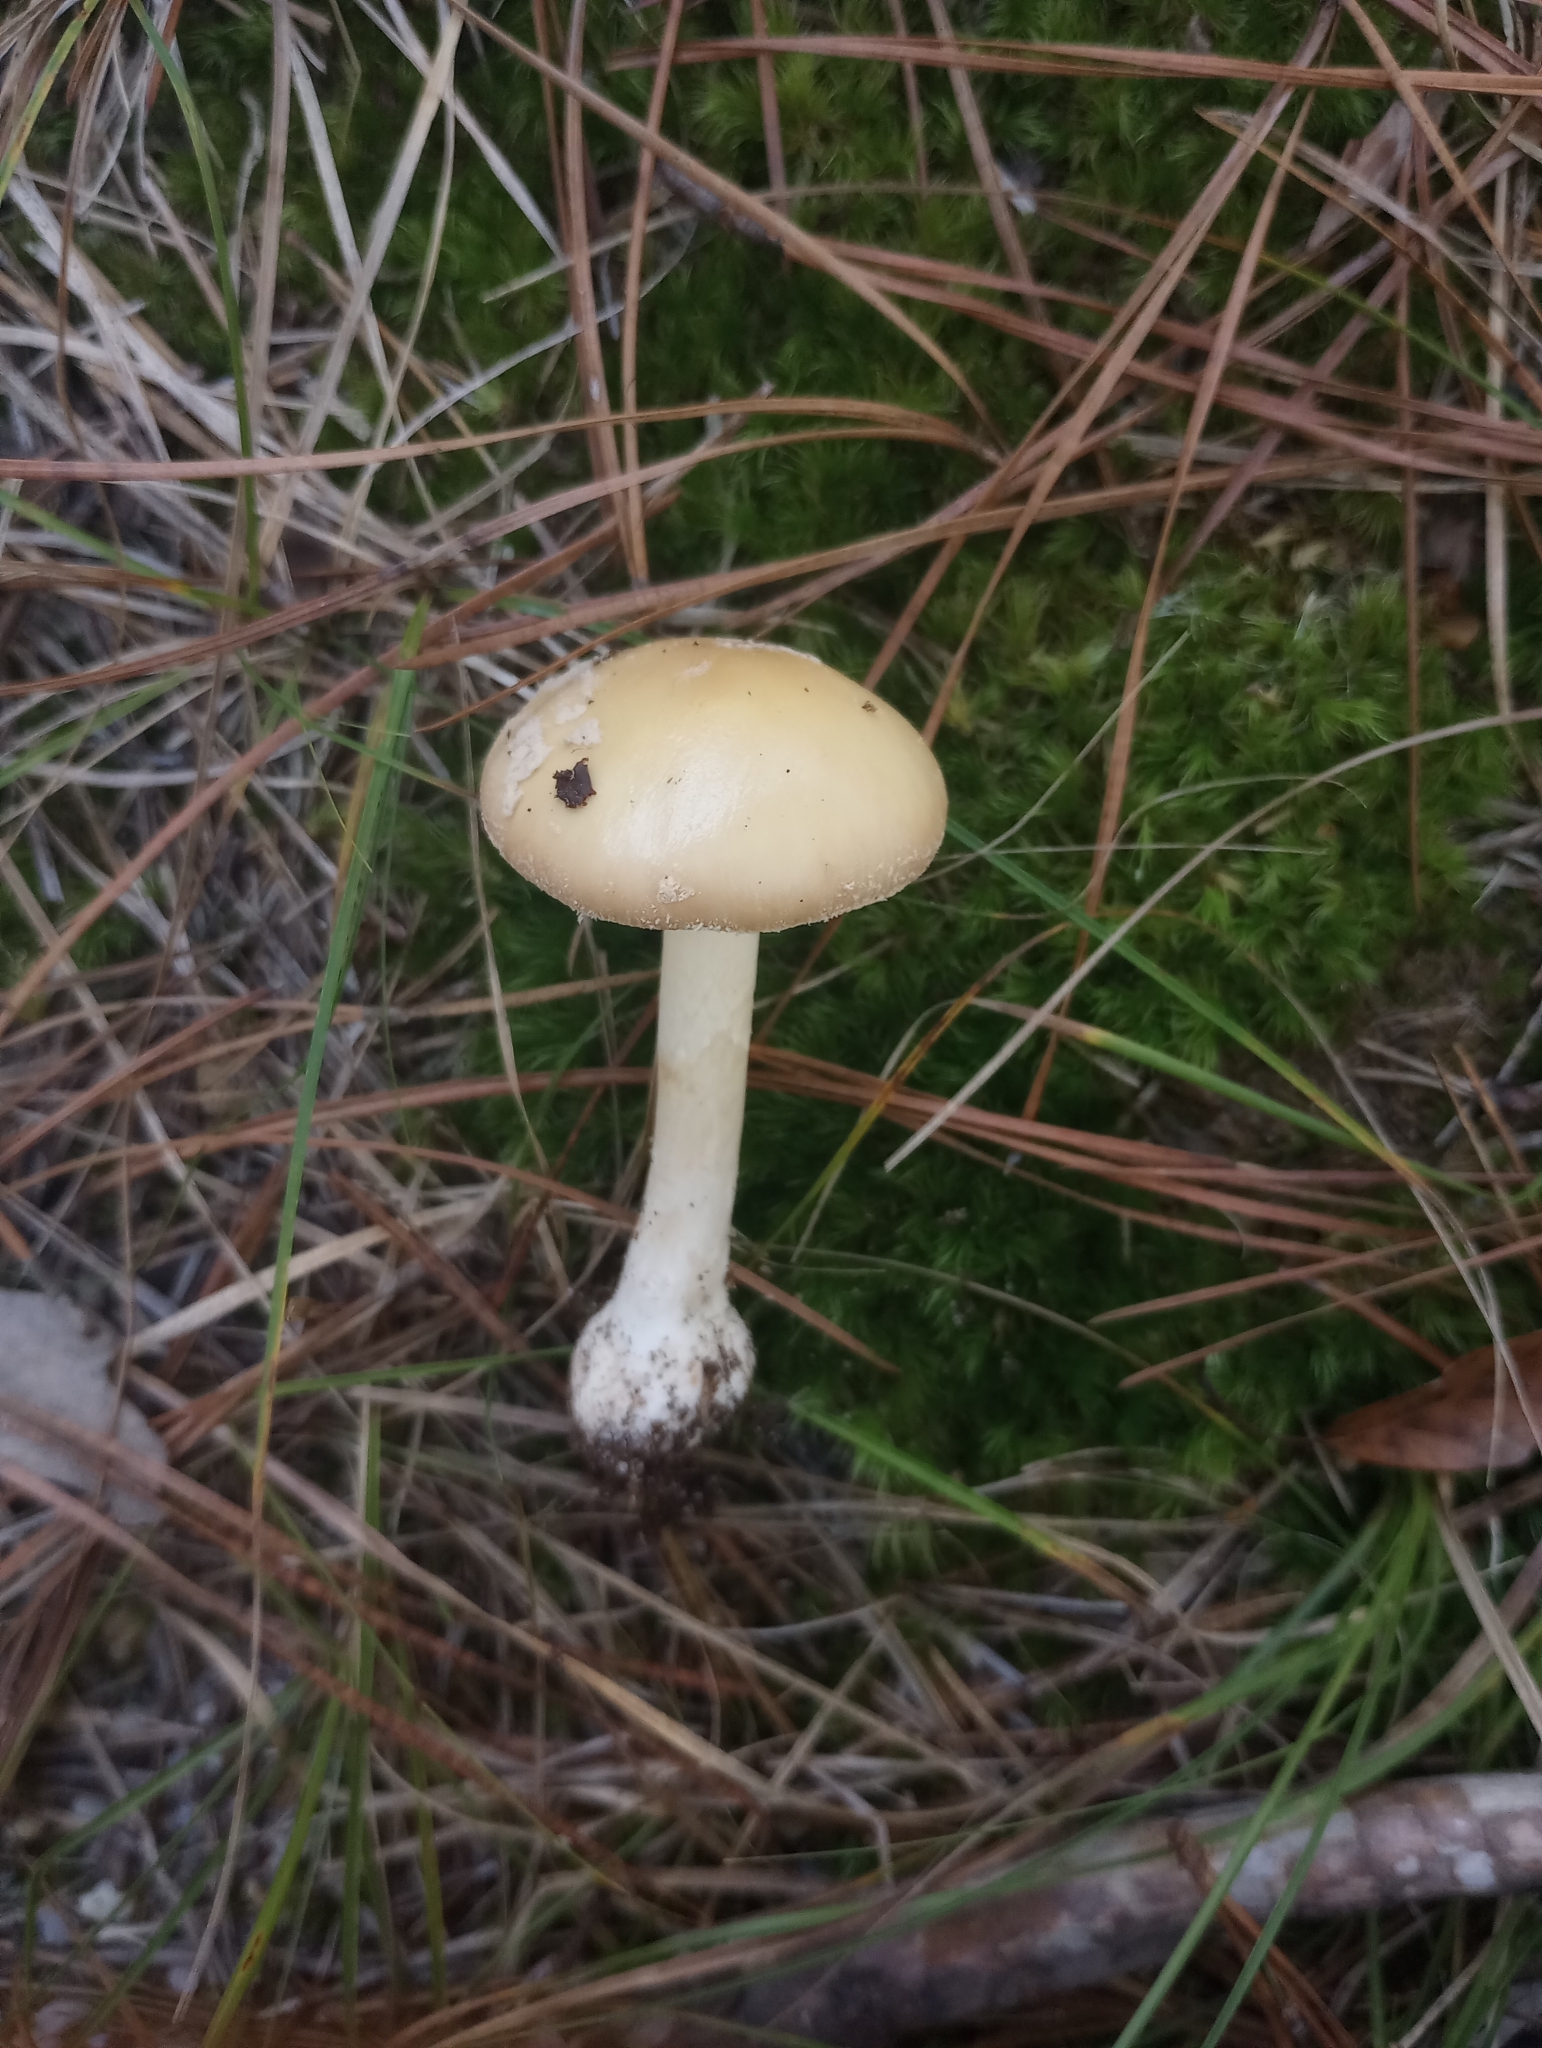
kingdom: Fungi
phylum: Basidiomycota
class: Agaricomycetes
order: Agaricales
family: Amanitaceae
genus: Amanita
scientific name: Amanita crenulata
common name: Poison champagne amanita
